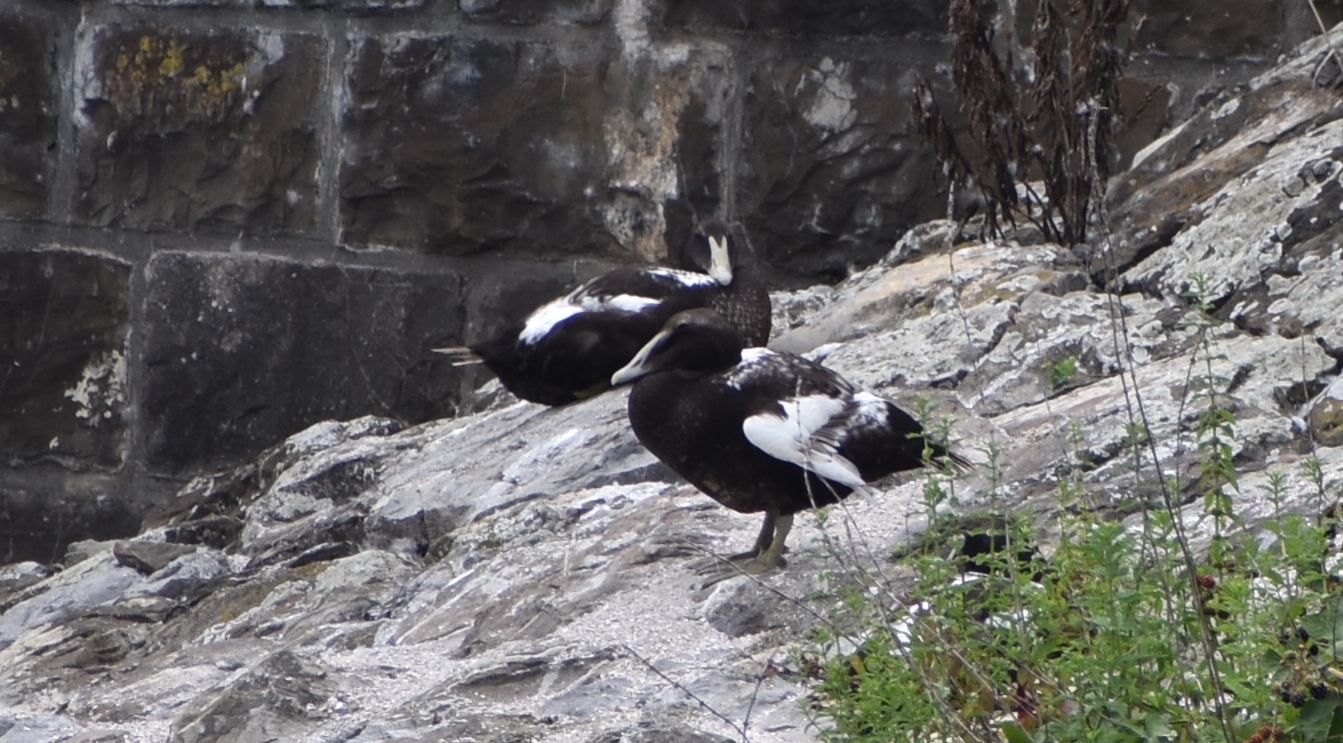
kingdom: Animalia
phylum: Chordata
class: Aves
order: Anseriformes
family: Anatidae
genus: Somateria
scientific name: Somateria mollissima
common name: Common eider
